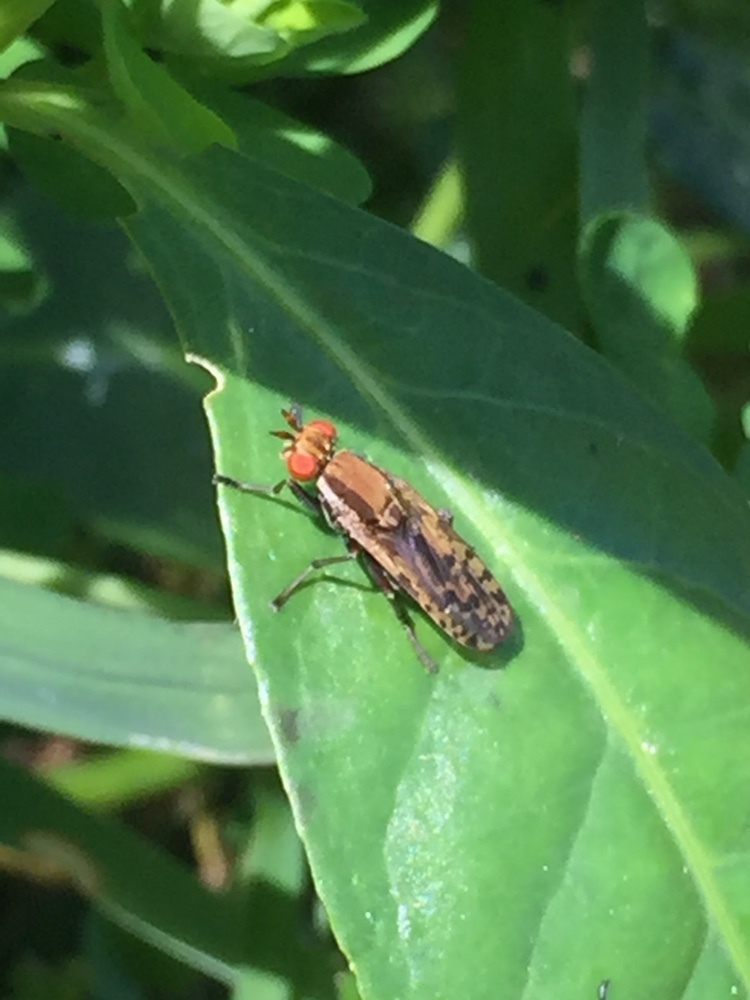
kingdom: Animalia
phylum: Arthropoda
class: Insecta
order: Diptera
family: Sciomyzidae
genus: Neolimnia
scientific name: Neolimnia tranquilla
